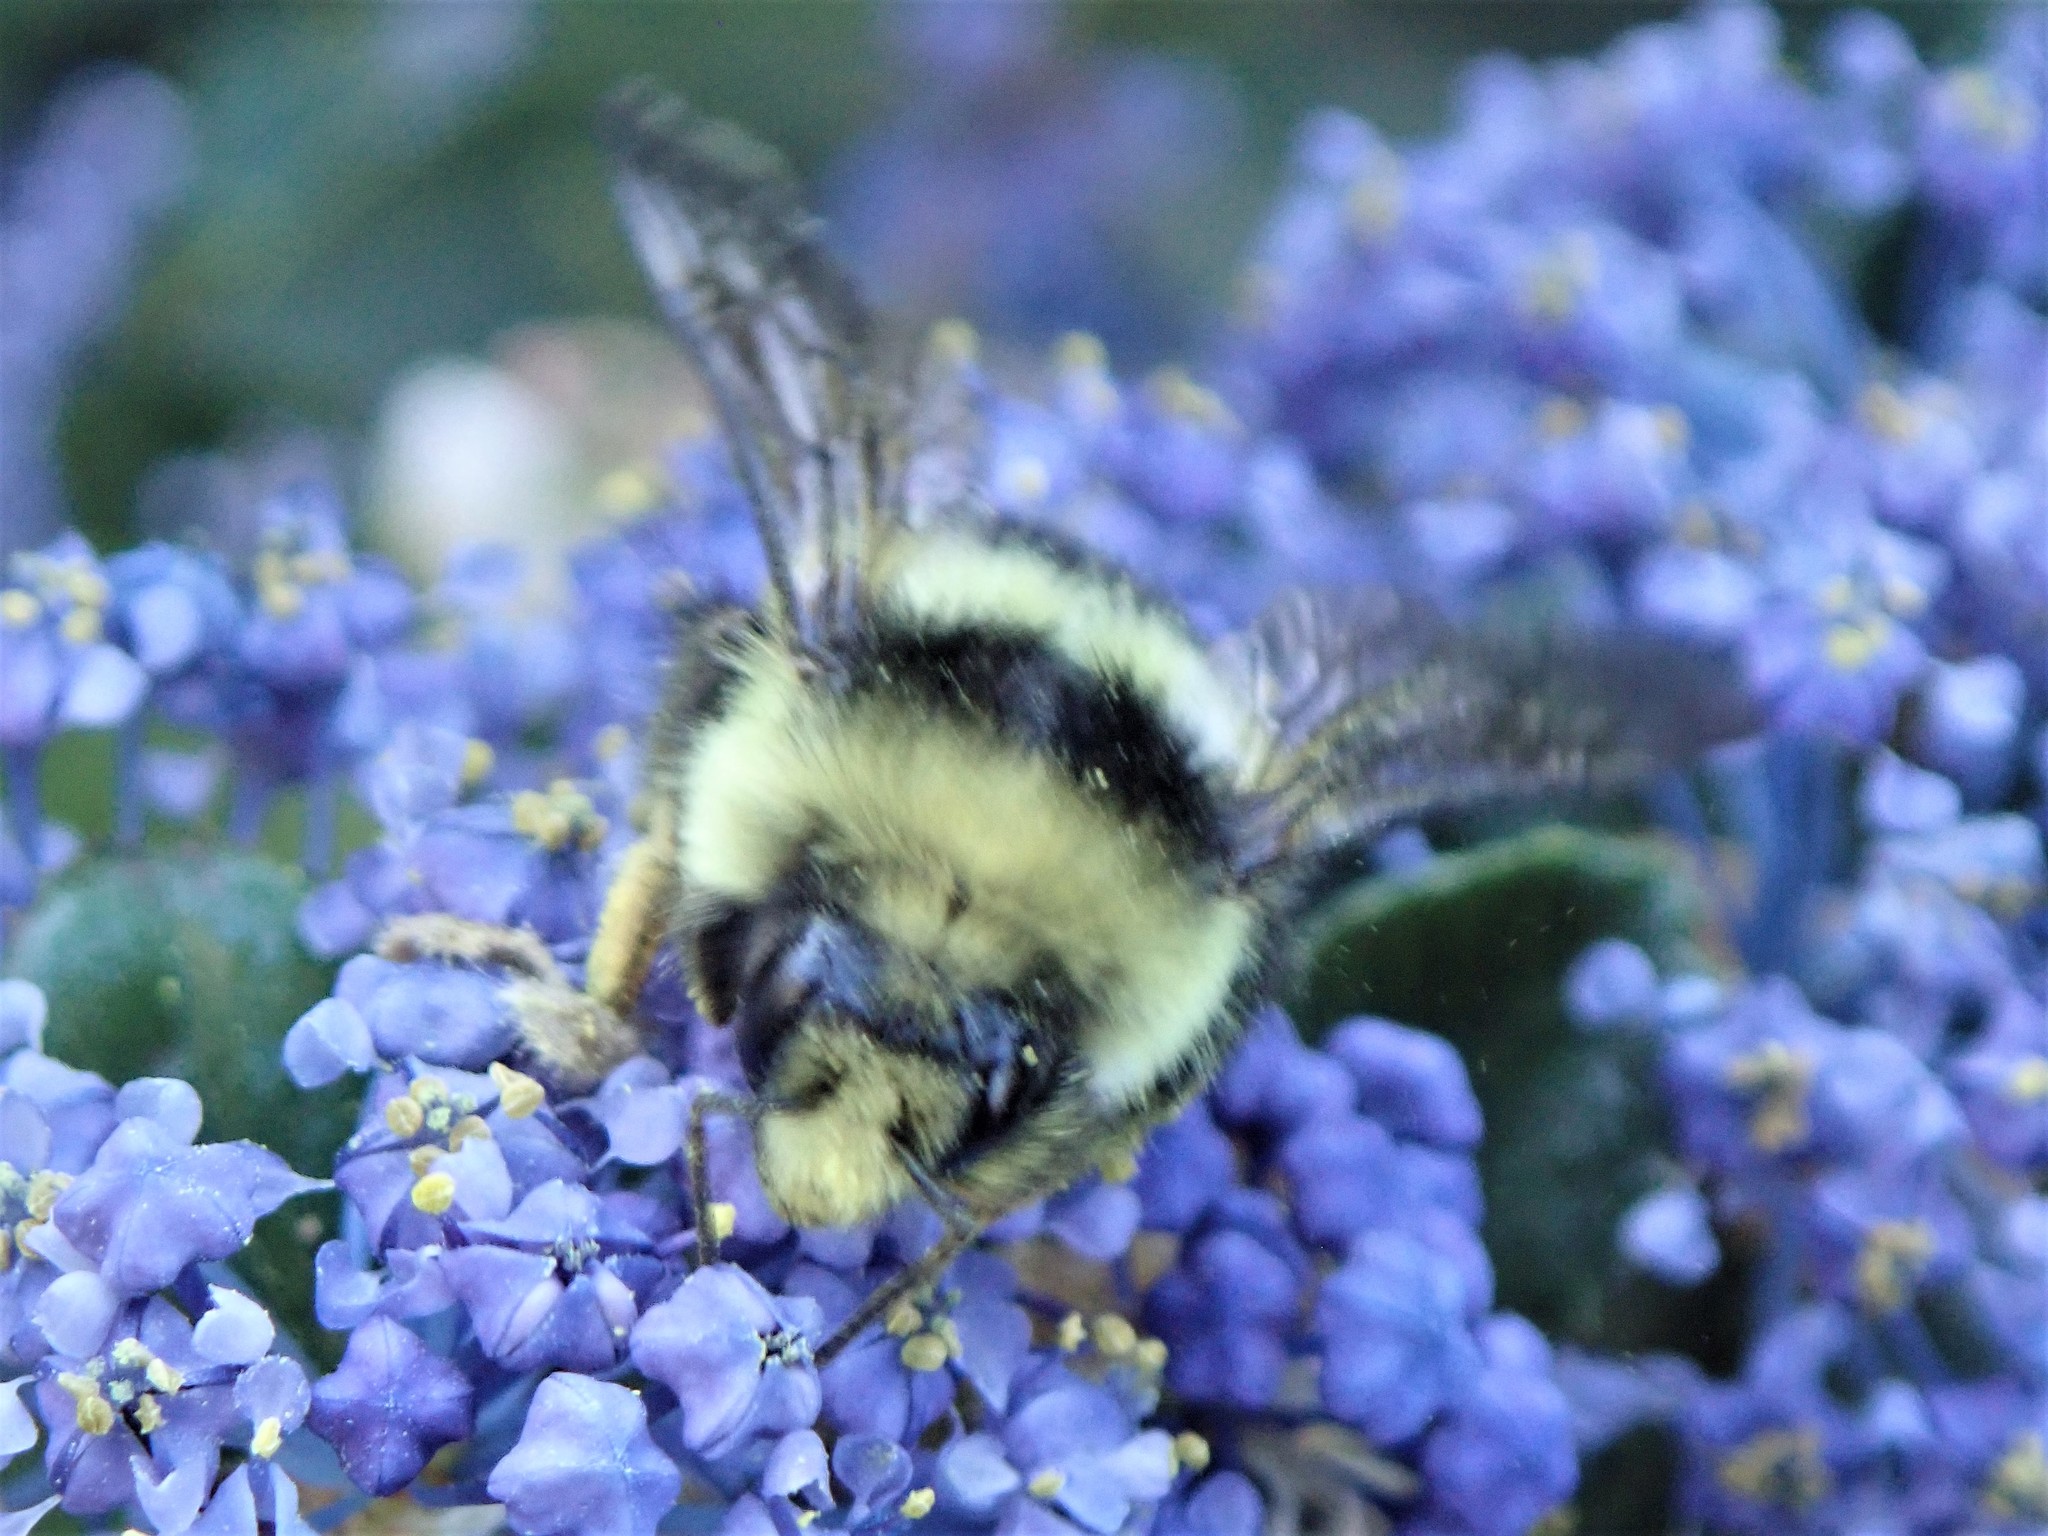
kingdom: Animalia
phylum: Arthropoda
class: Insecta
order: Hymenoptera
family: Apidae
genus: Bombus
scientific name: Bombus melanopygus
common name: Black tail bumble bee
